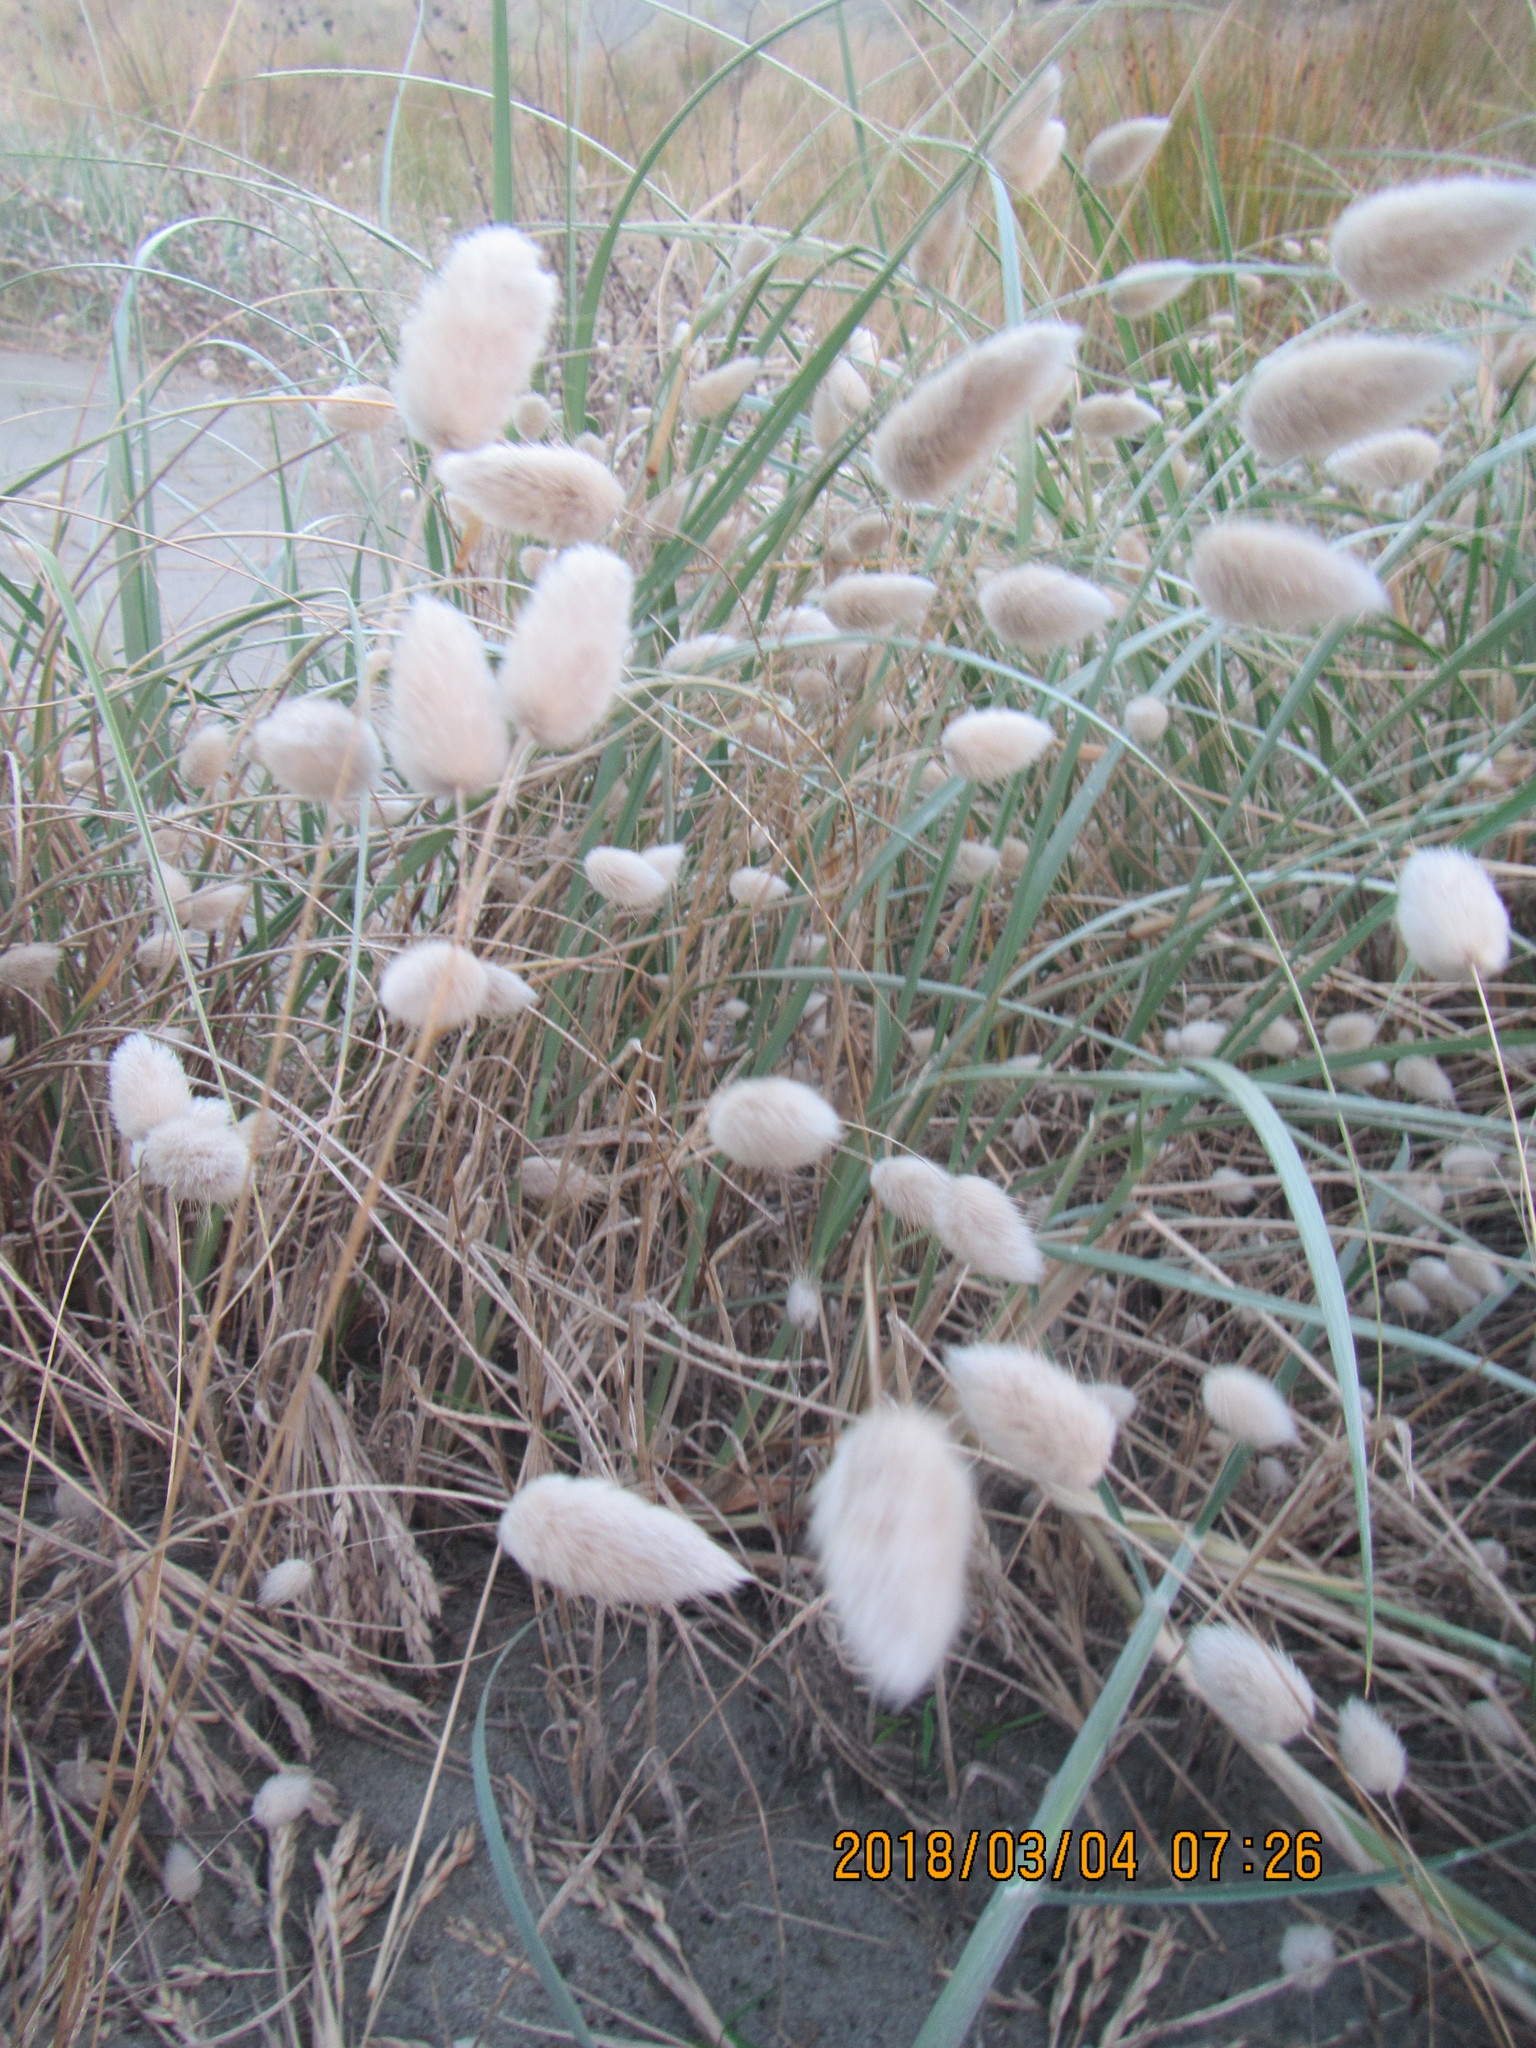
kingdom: Plantae
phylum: Tracheophyta
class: Liliopsida
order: Poales
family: Poaceae
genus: Lagurus
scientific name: Lagurus ovatus
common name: Hare's-tail
